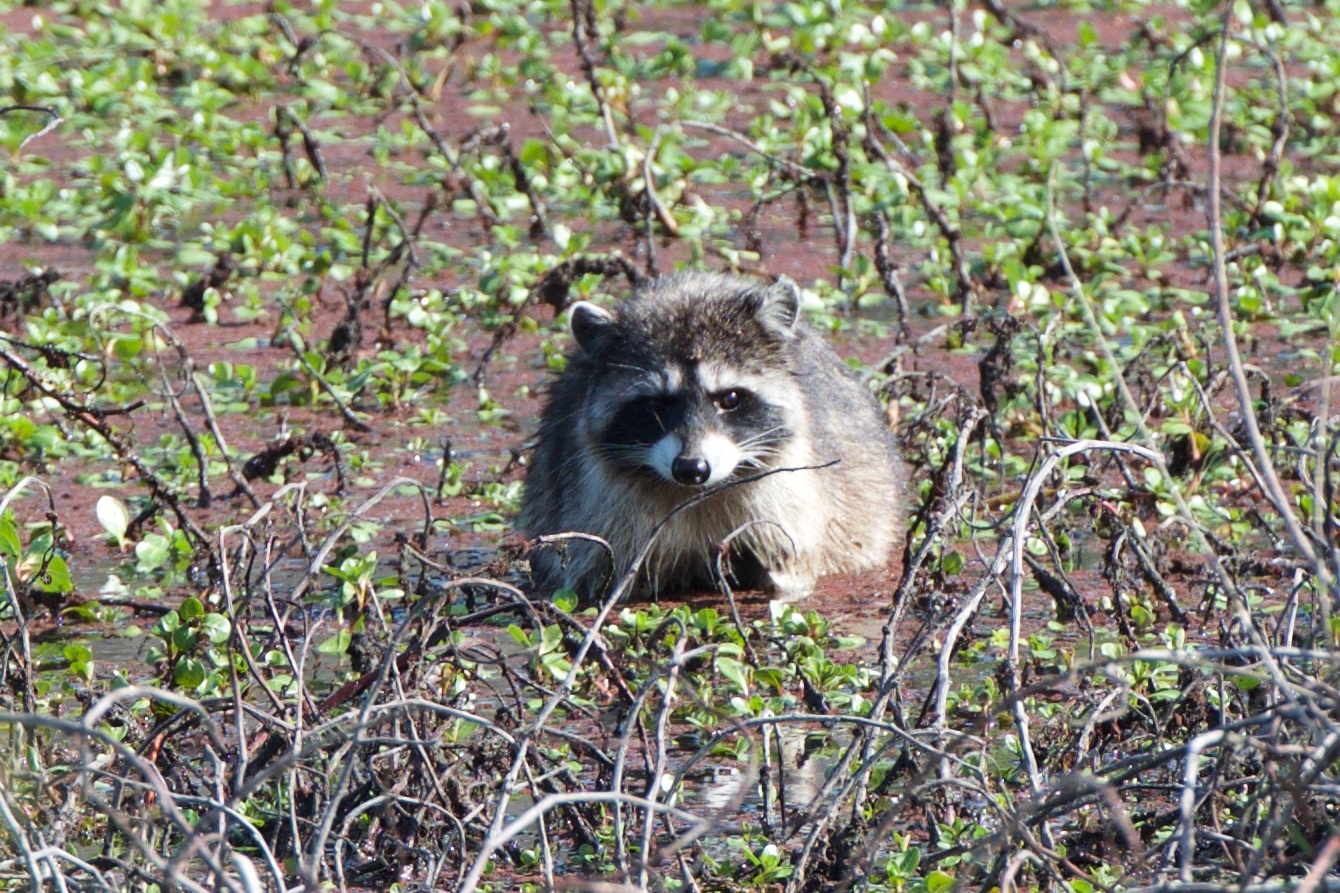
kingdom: Animalia
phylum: Chordata
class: Mammalia
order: Carnivora
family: Procyonidae
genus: Procyon
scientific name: Procyon lotor
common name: Raccoon
